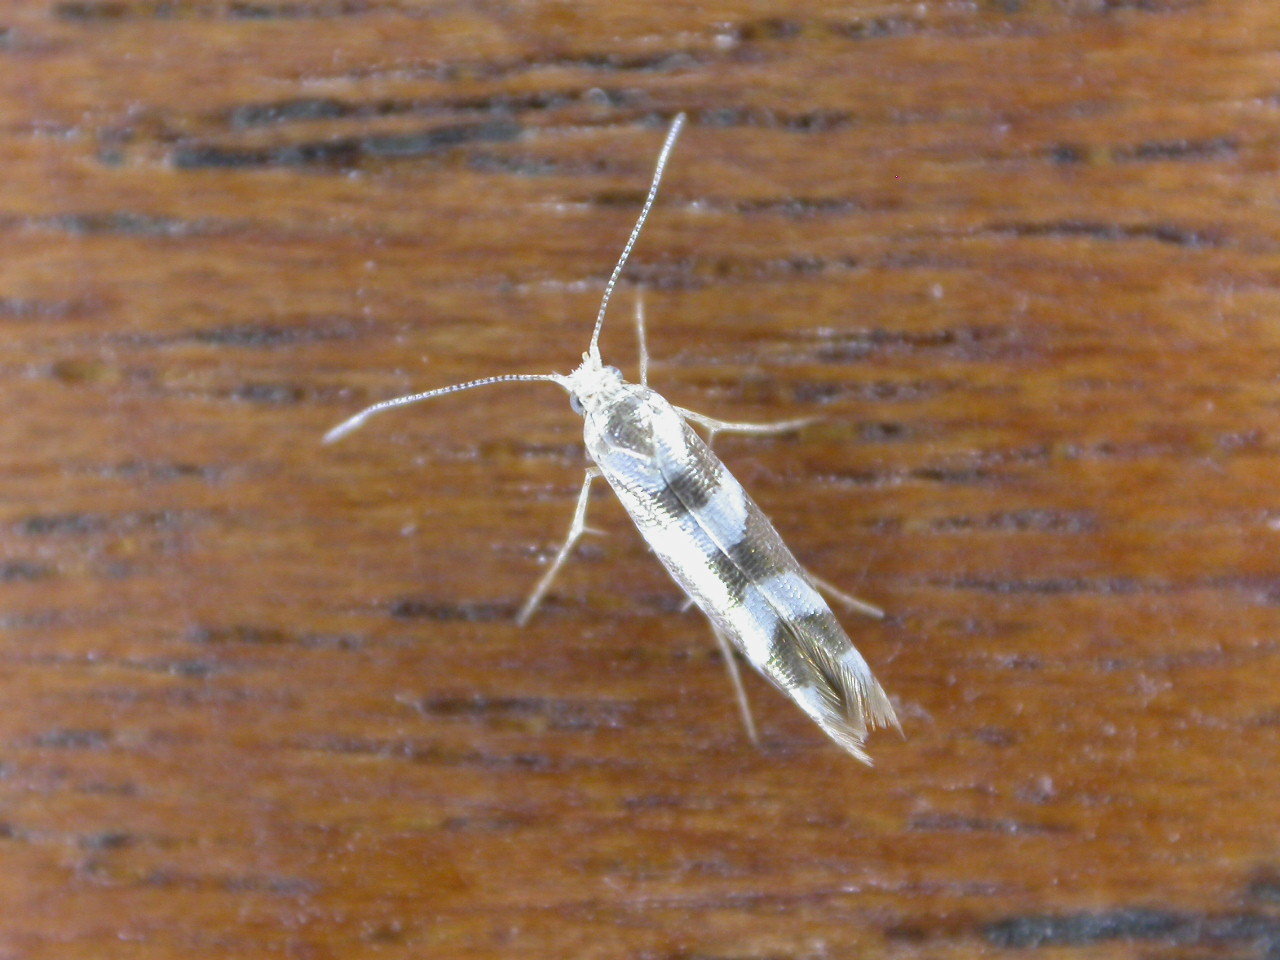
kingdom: Animalia
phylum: Arthropoda
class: Insecta
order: Lepidoptera
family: Argyresthiidae
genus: Argyresthia
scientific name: Argyresthia goedartella
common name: Golden argent
